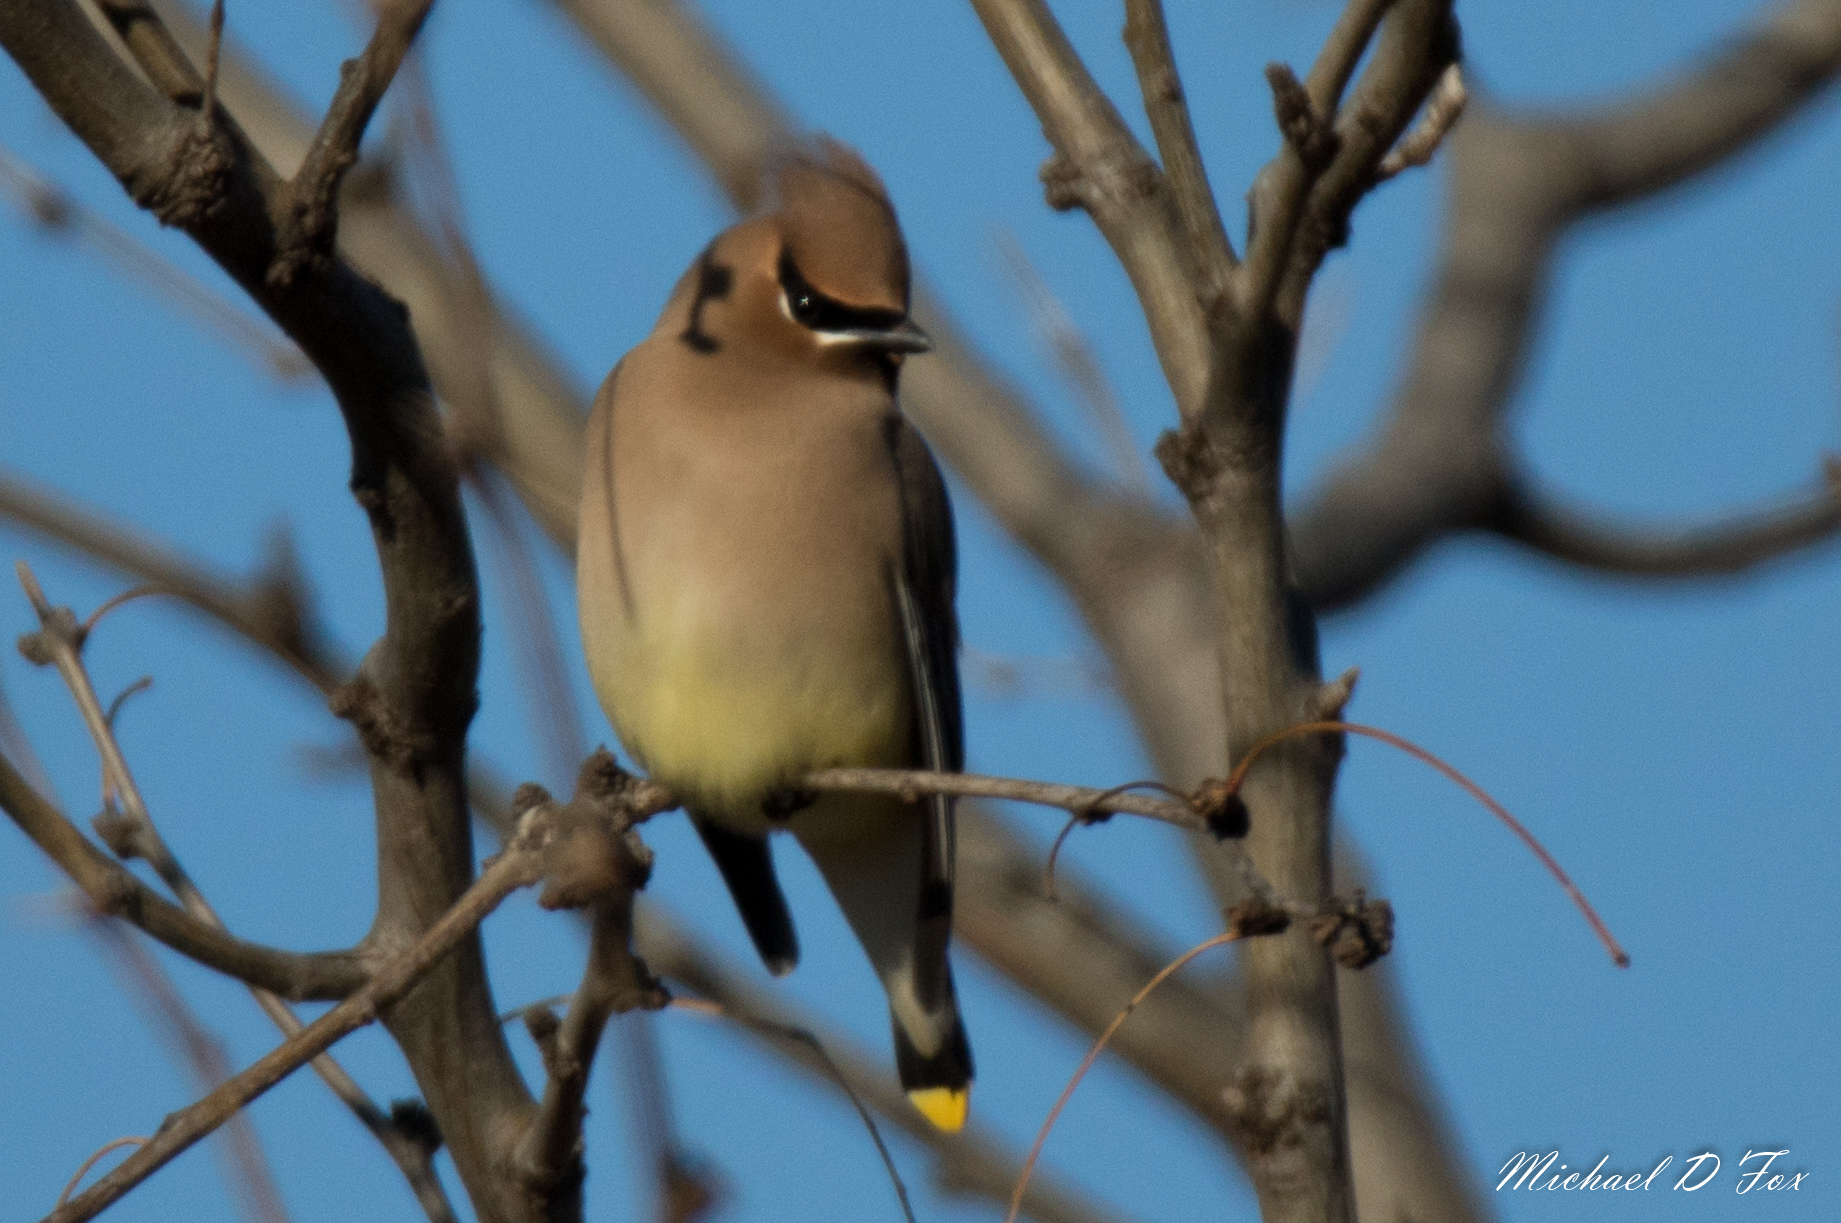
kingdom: Animalia
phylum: Chordata
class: Aves
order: Passeriformes
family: Bombycillidae
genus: Bombycilla
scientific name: Bombycilla cedrorum
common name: Cedar waxwing
